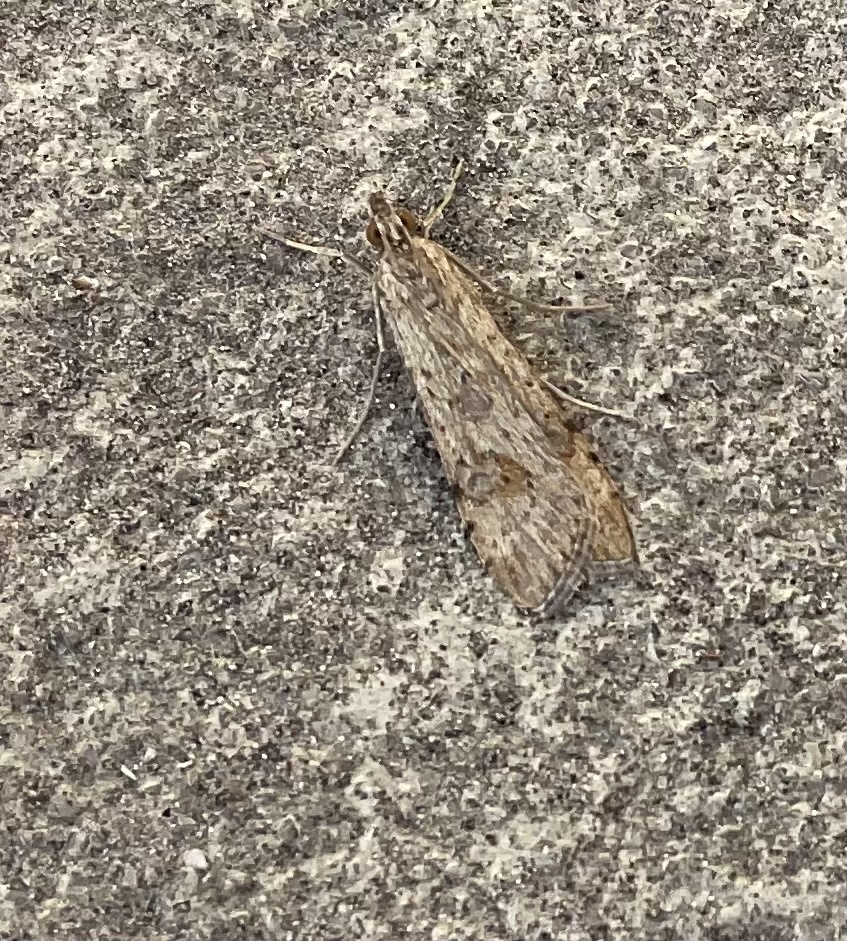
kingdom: Animalia
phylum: Arthropoda
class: Insecta
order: Lepidoptera
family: Crambidae
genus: Nomophila
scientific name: Nomophila noctuella
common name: Rush veneer
